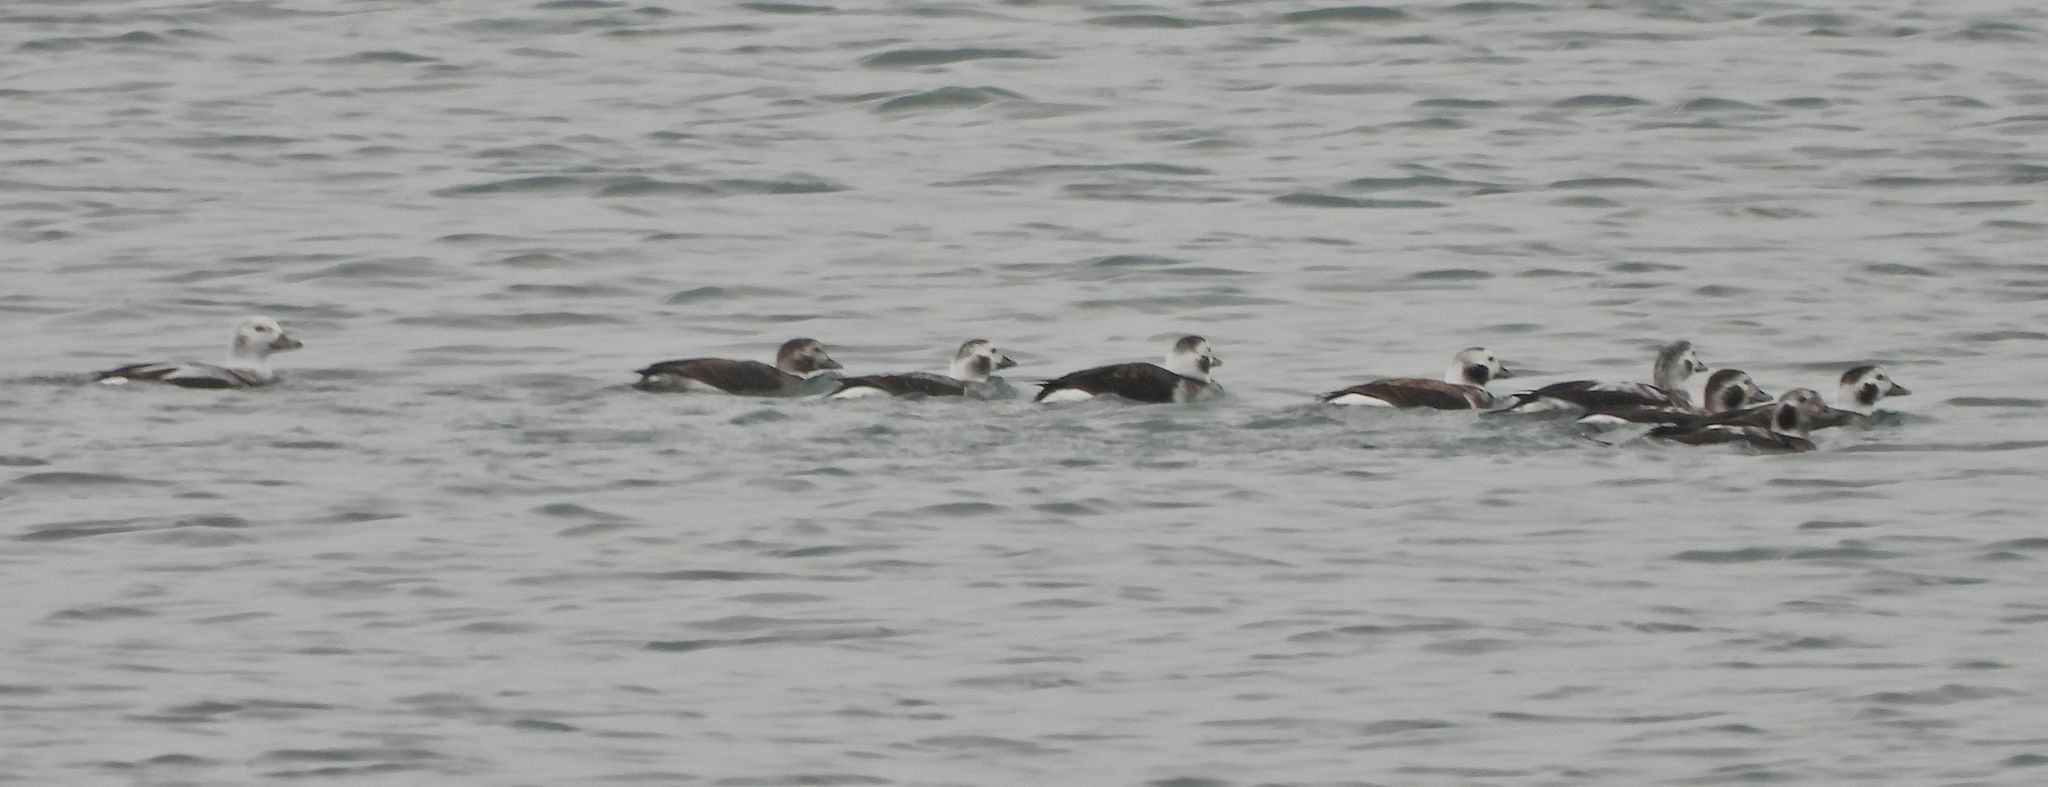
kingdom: Animalia
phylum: Chordata
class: Aves
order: Anseriformes
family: Anatidae
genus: Clangula
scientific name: Clangula hyemalis
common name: Long-tailed duck
